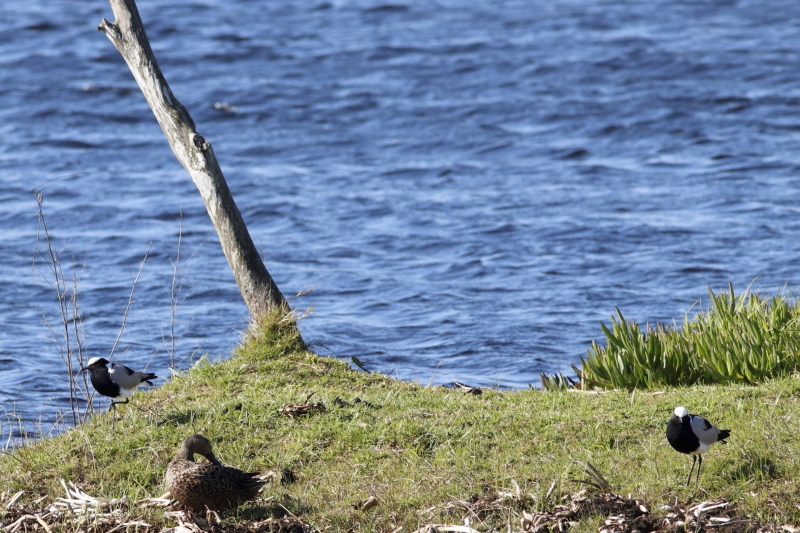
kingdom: Animalia
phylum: Chordata
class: Aves
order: Charadriiformes
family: Charadriidae
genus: Vanellus
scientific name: Vanellus armatus
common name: Blacksmith lapwing
